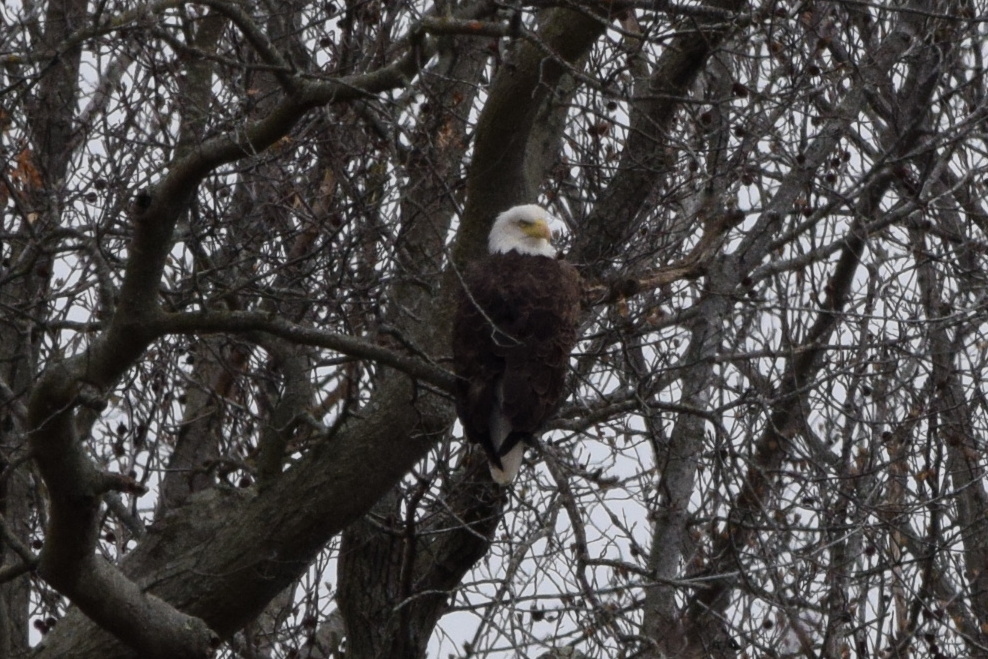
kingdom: Animalia
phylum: Chordata
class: Aves
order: Accipitriformes
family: Accipitridae
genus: Haliaeetus
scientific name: Haliaeetus leucocephalus
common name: Bald eagle
